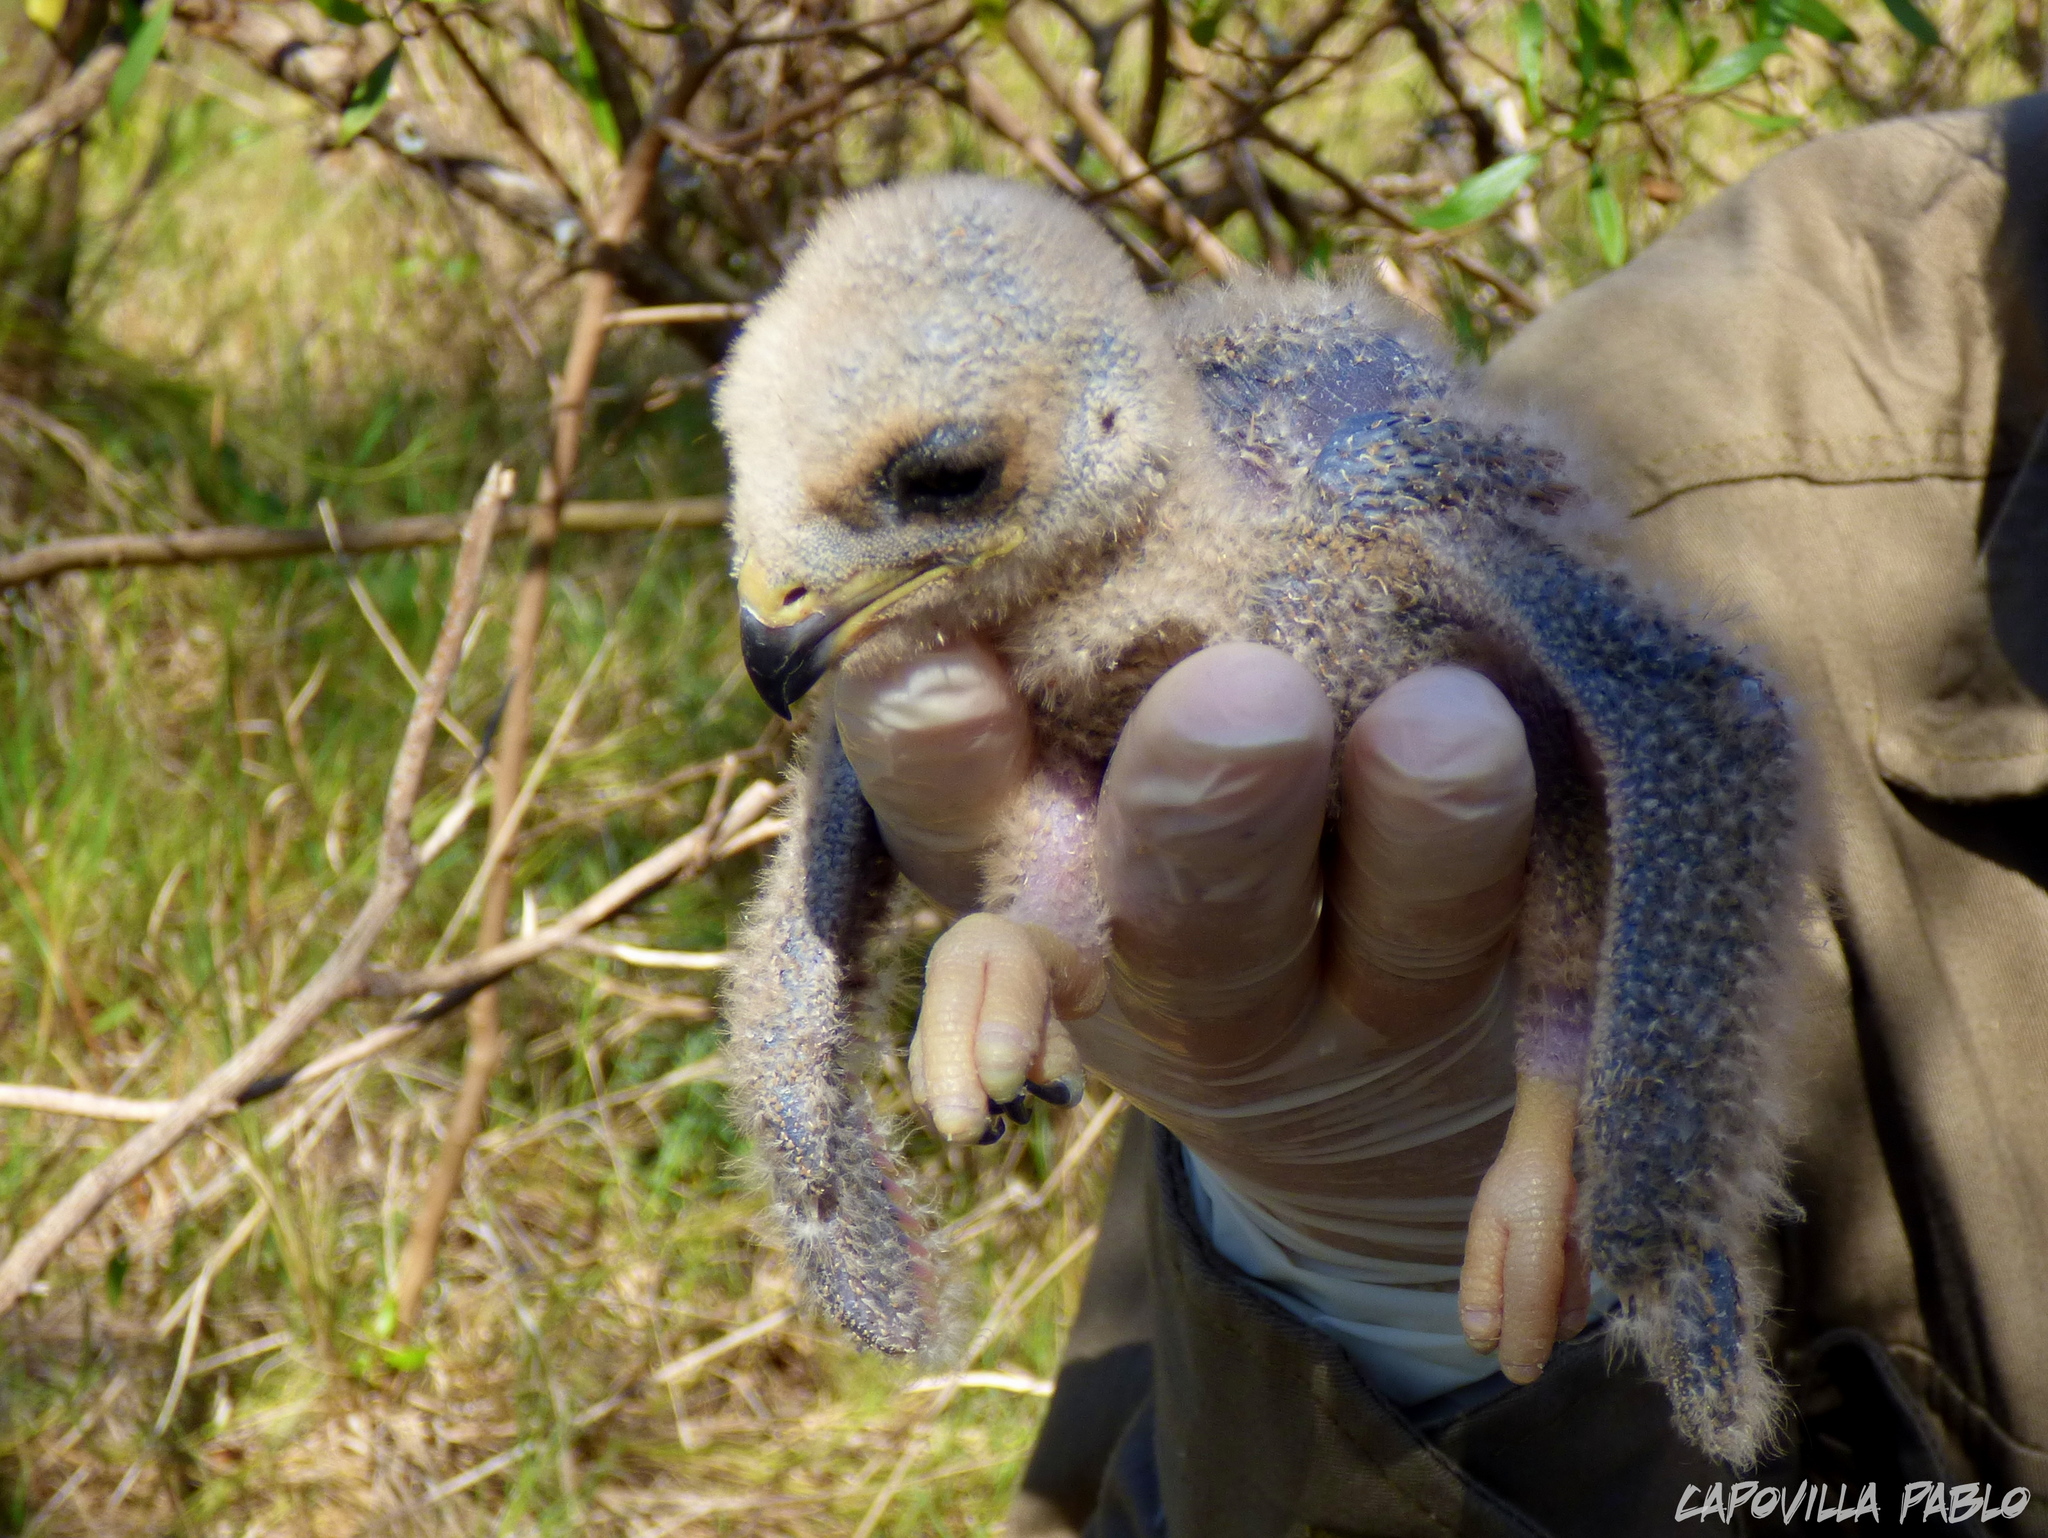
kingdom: Animalia
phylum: Chordata
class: Aves
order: Accipitriformes
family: Accipitridae
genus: Elanus
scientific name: Elanus leucurus
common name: White-tailed kite
